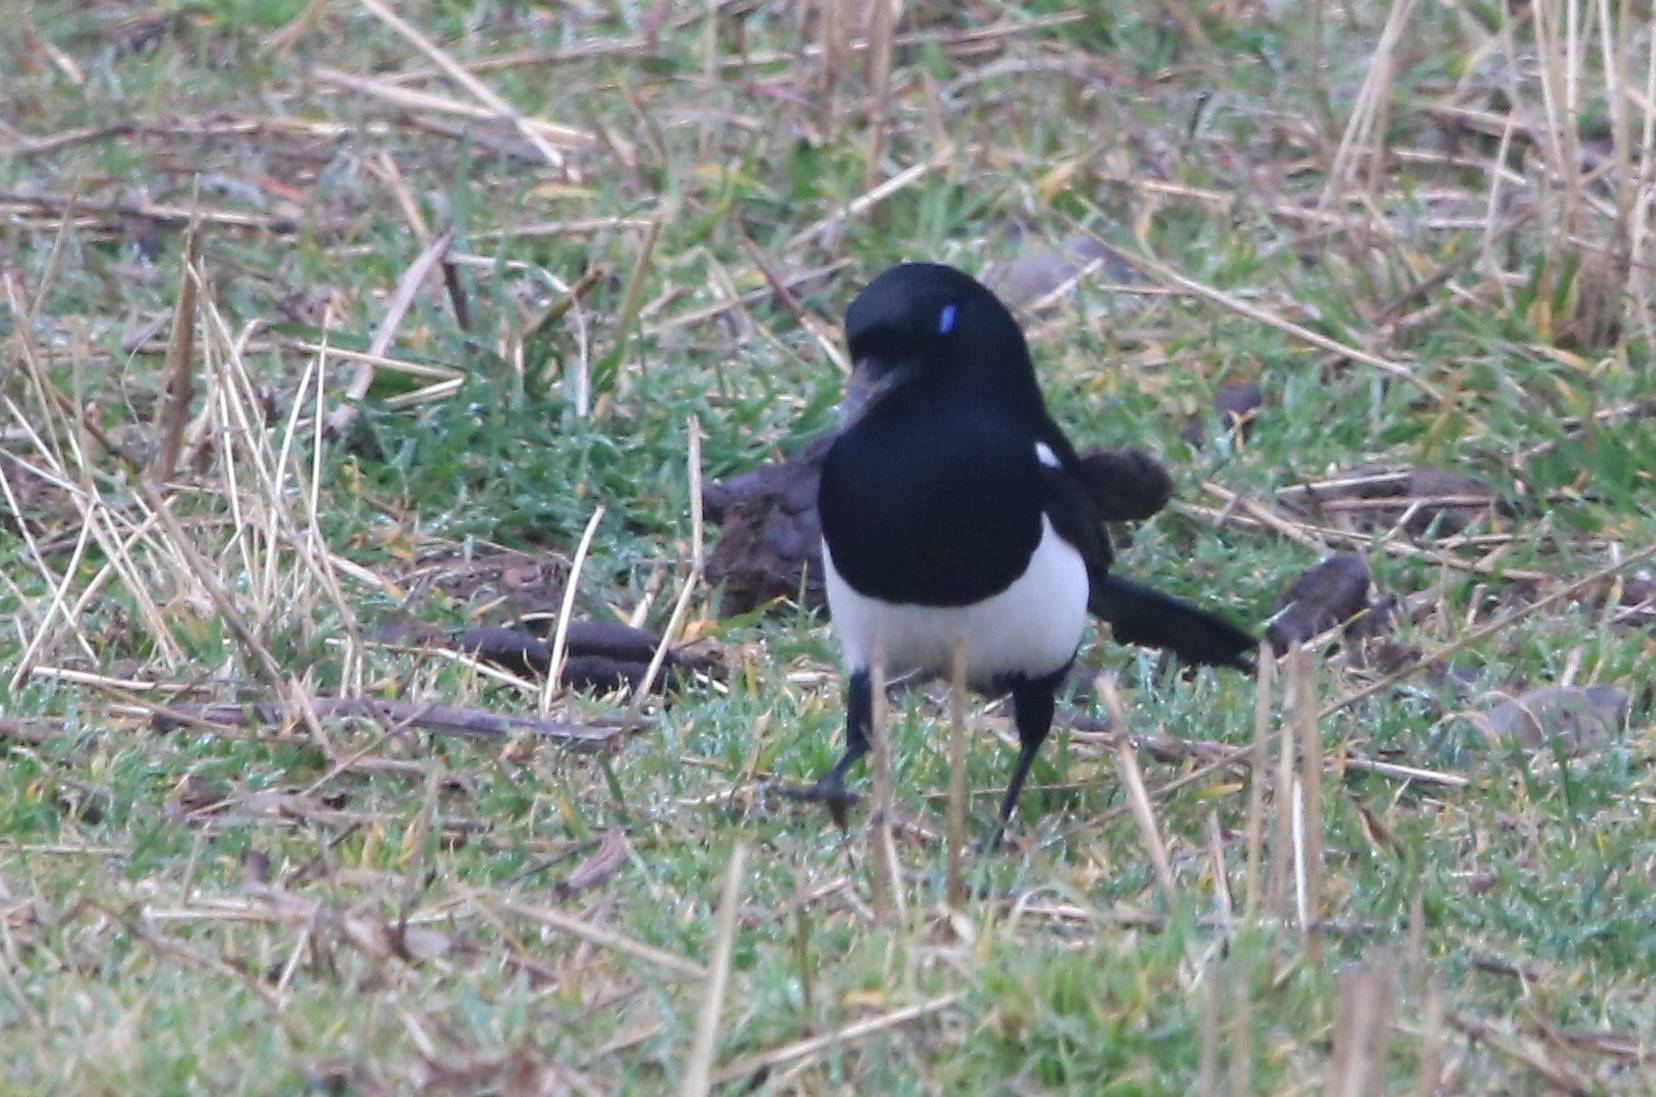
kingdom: Animalia
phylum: Chordata
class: Aves
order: Passeriformes
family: Corvidae
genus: Pica
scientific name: Pica mauritanica
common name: Maghreb magpie
